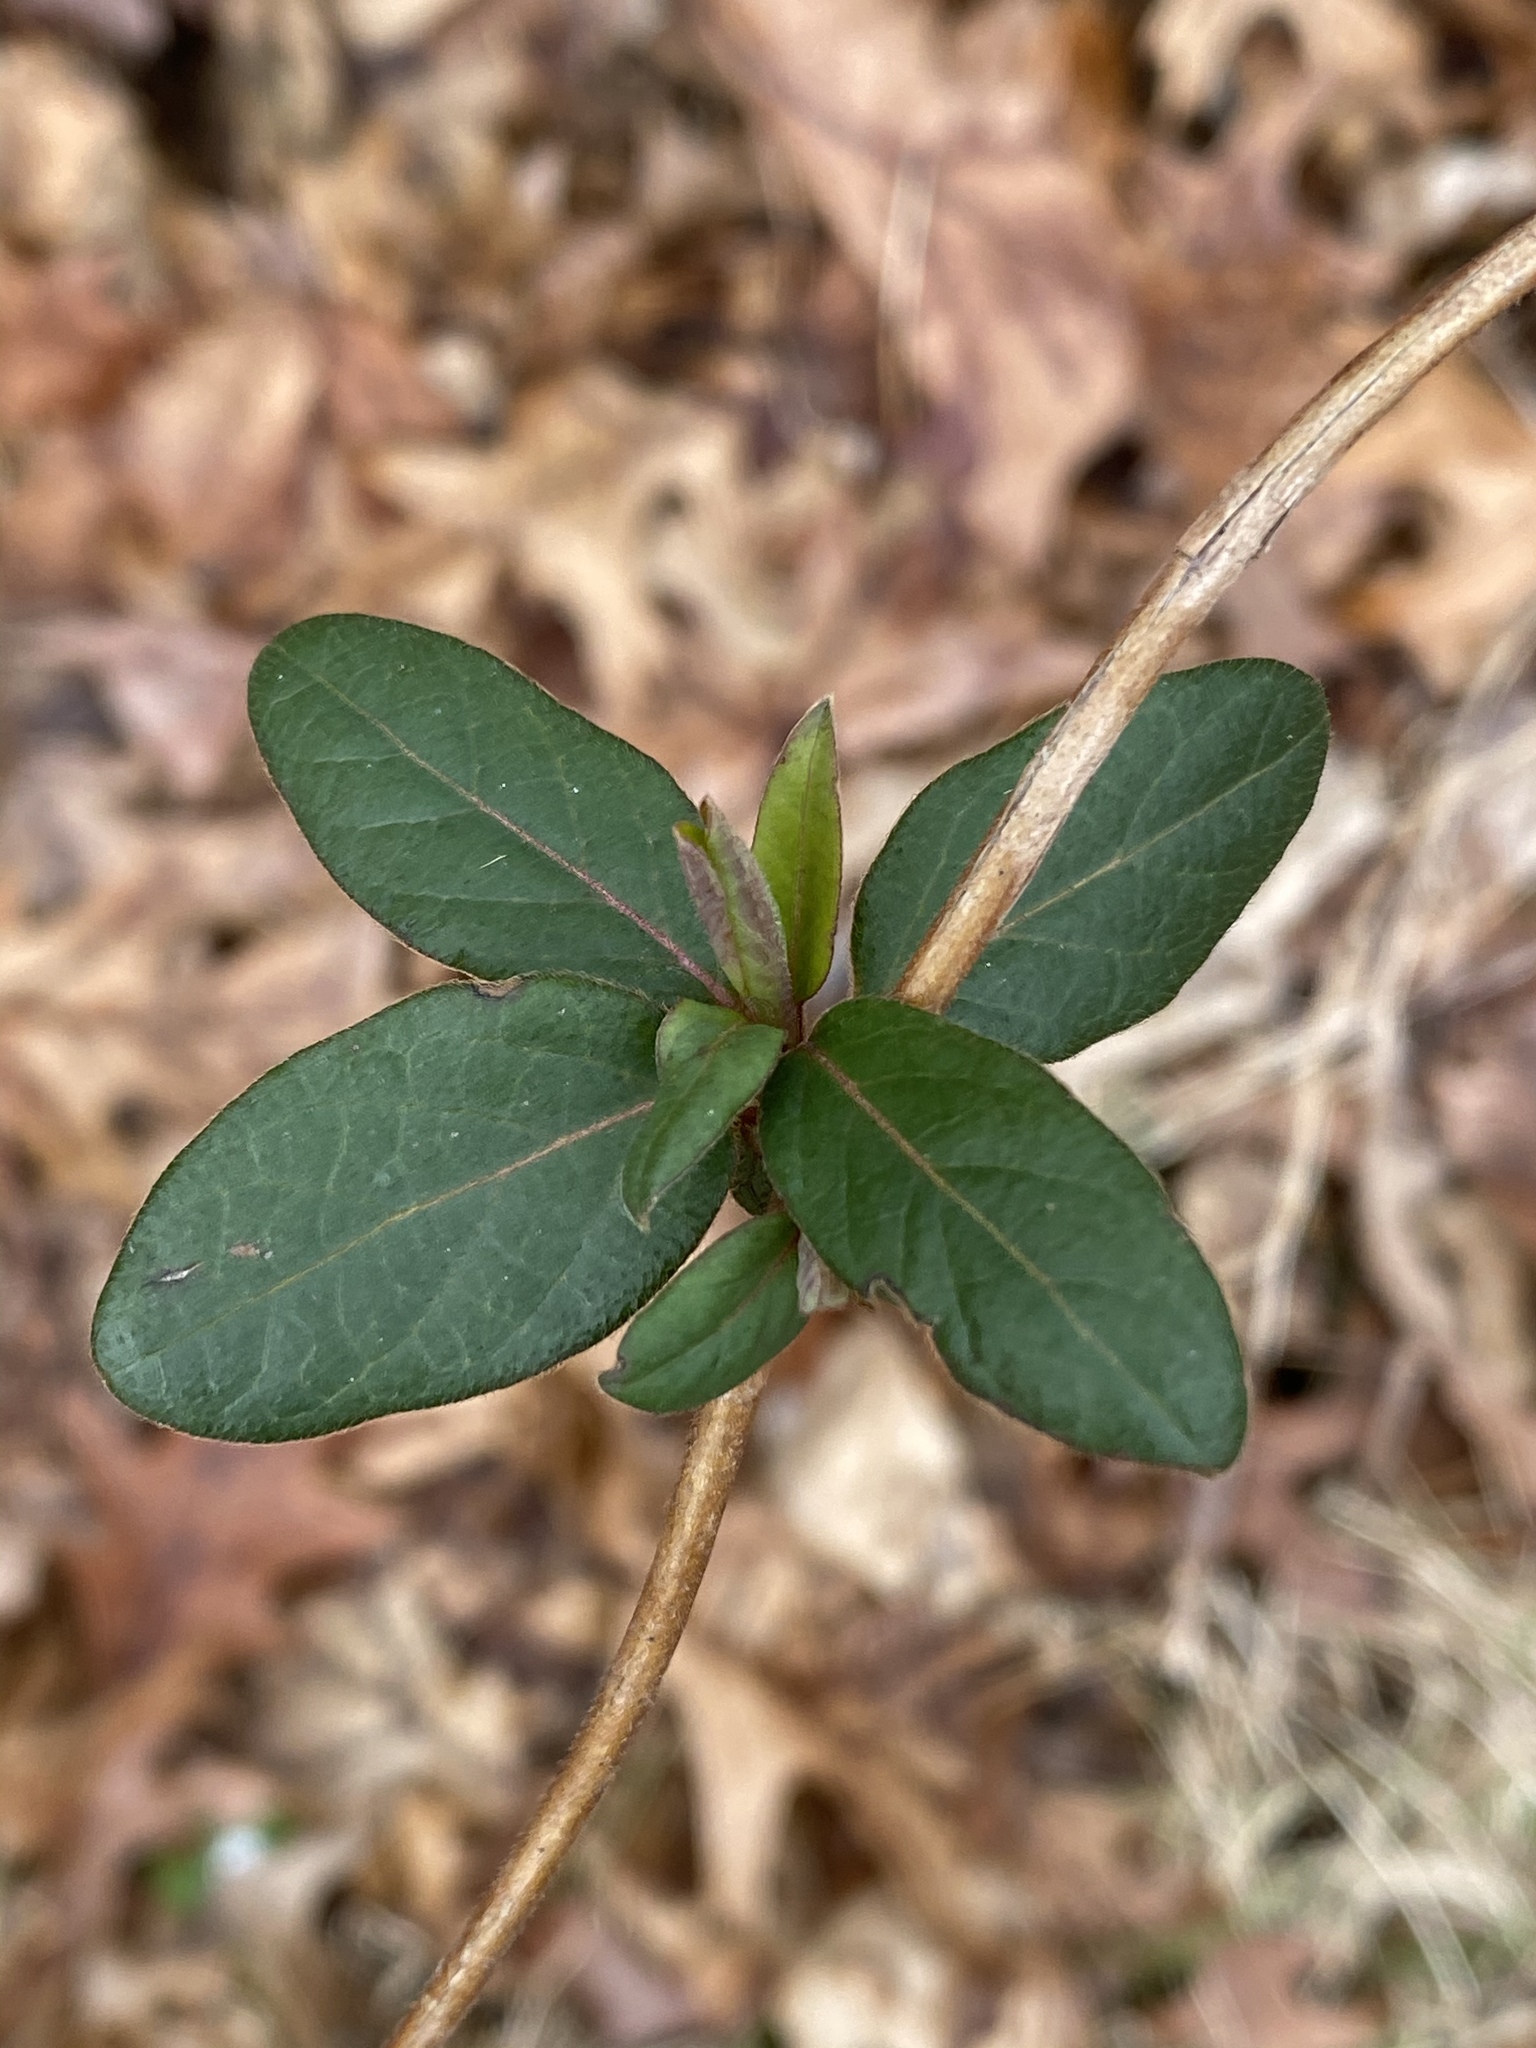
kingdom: Plantae
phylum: Tracheophyta
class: Magnoliopsida
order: Dipsacales
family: Caprifoliaceae
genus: Lonicera
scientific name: Lonicera japonica
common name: Japanese honeysuckle
